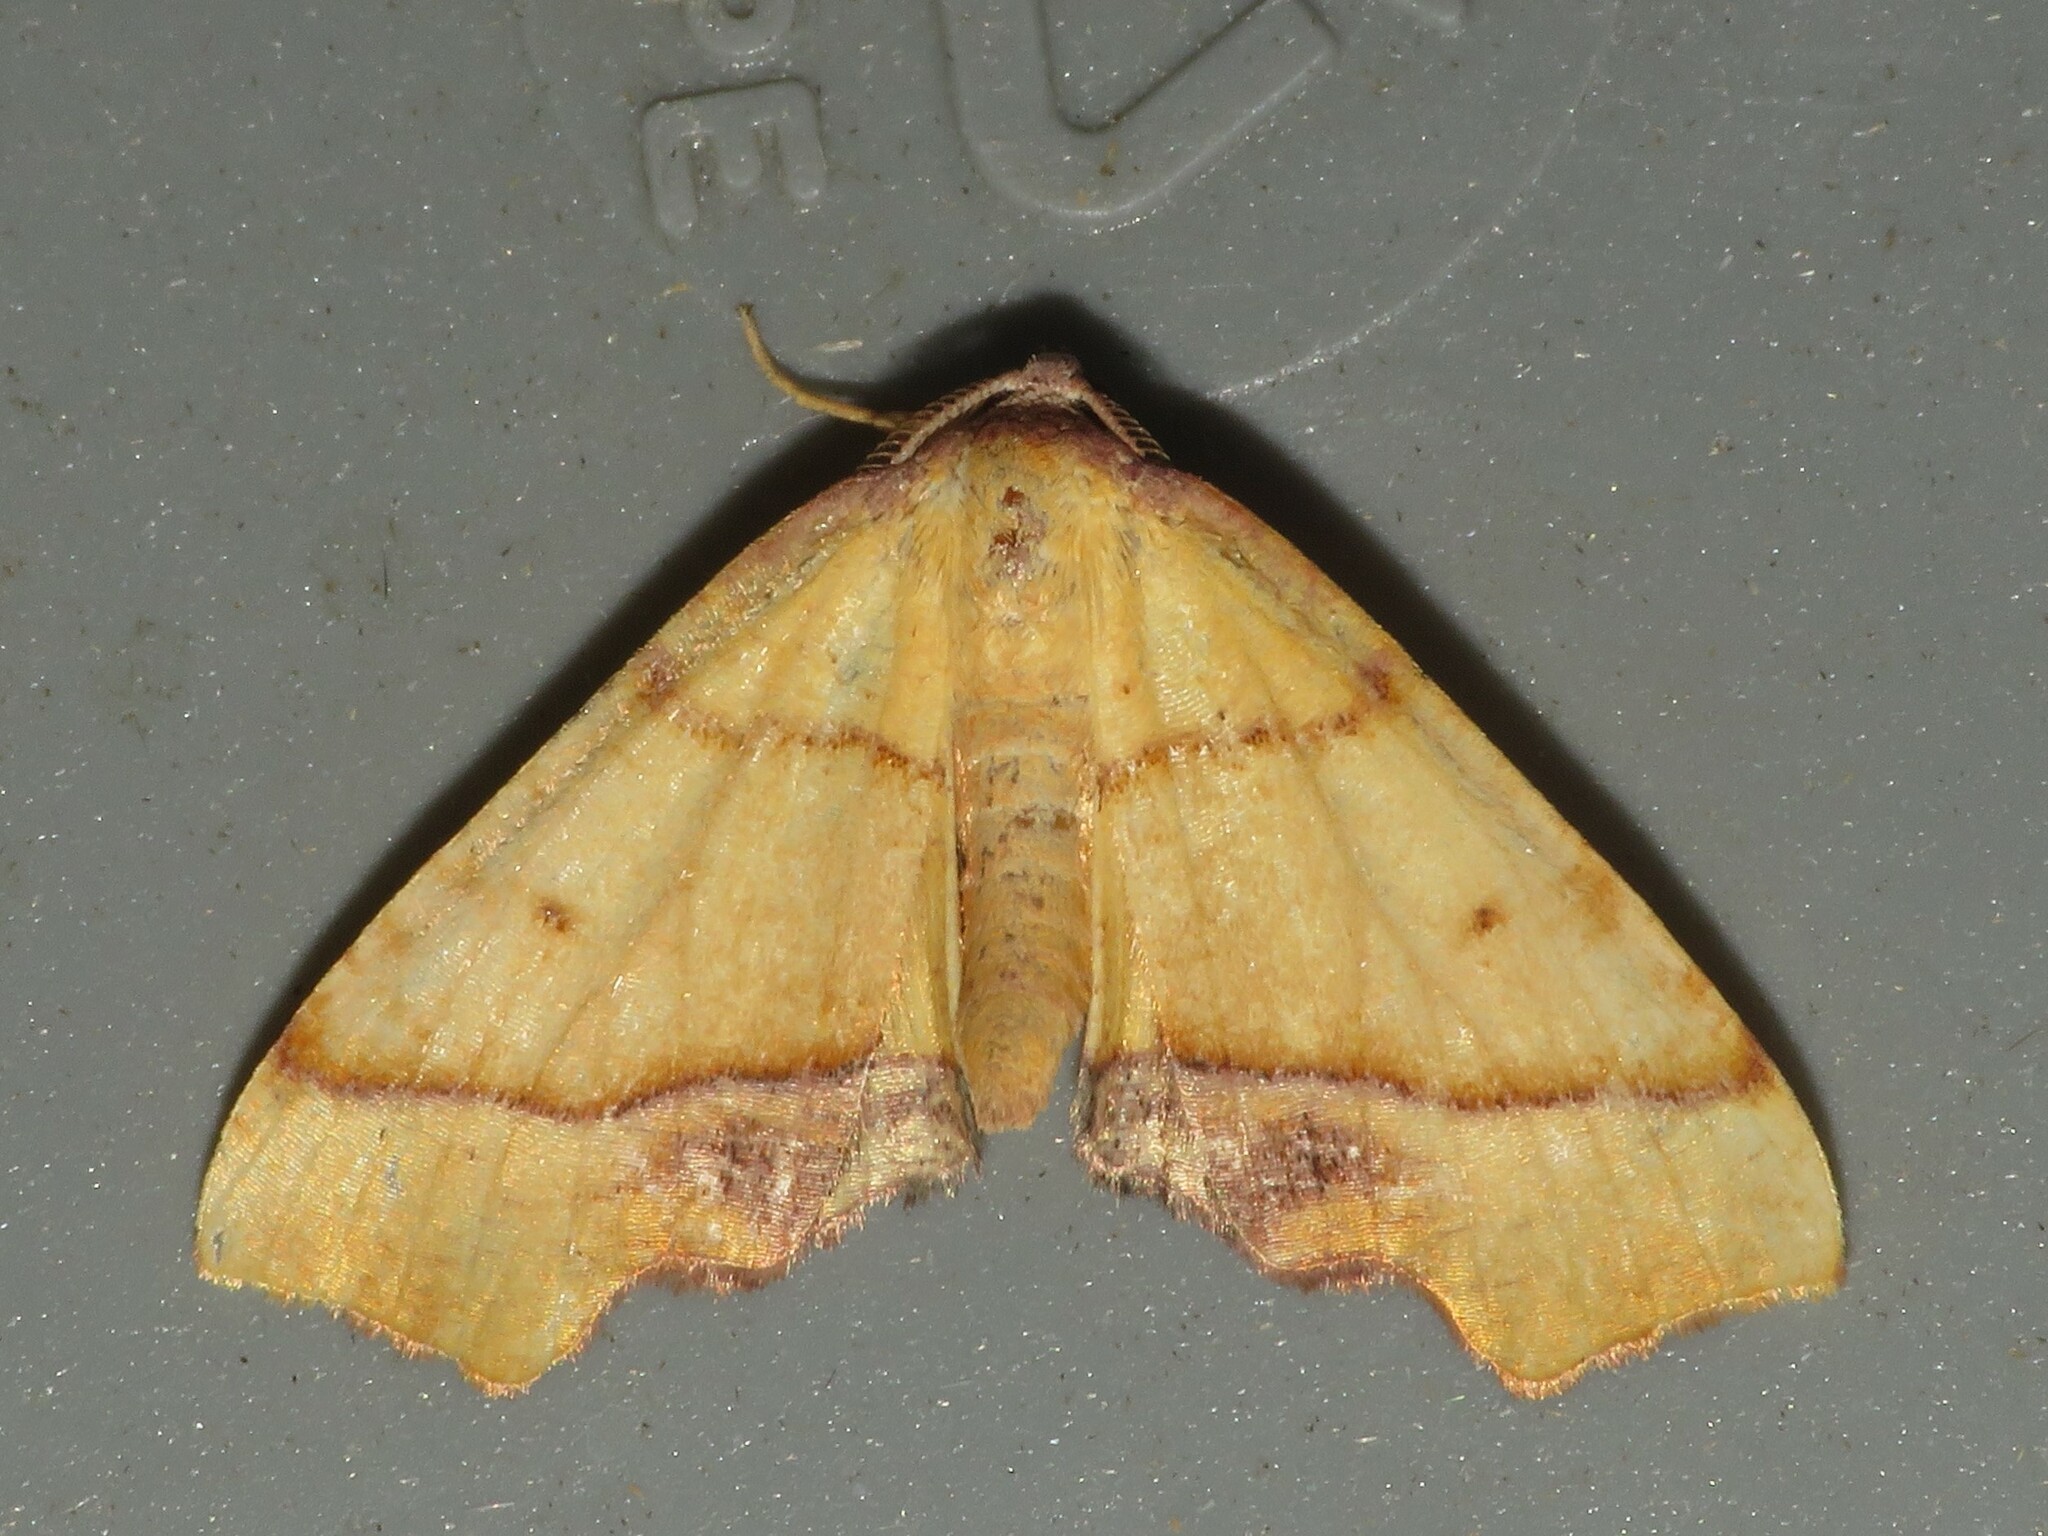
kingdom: Animalia
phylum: Arthropoda
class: Insecta
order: Lepidoptera
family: Geometridae
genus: Plagodis
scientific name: Plagodis phlogosaria
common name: Straight-lined plagodis
